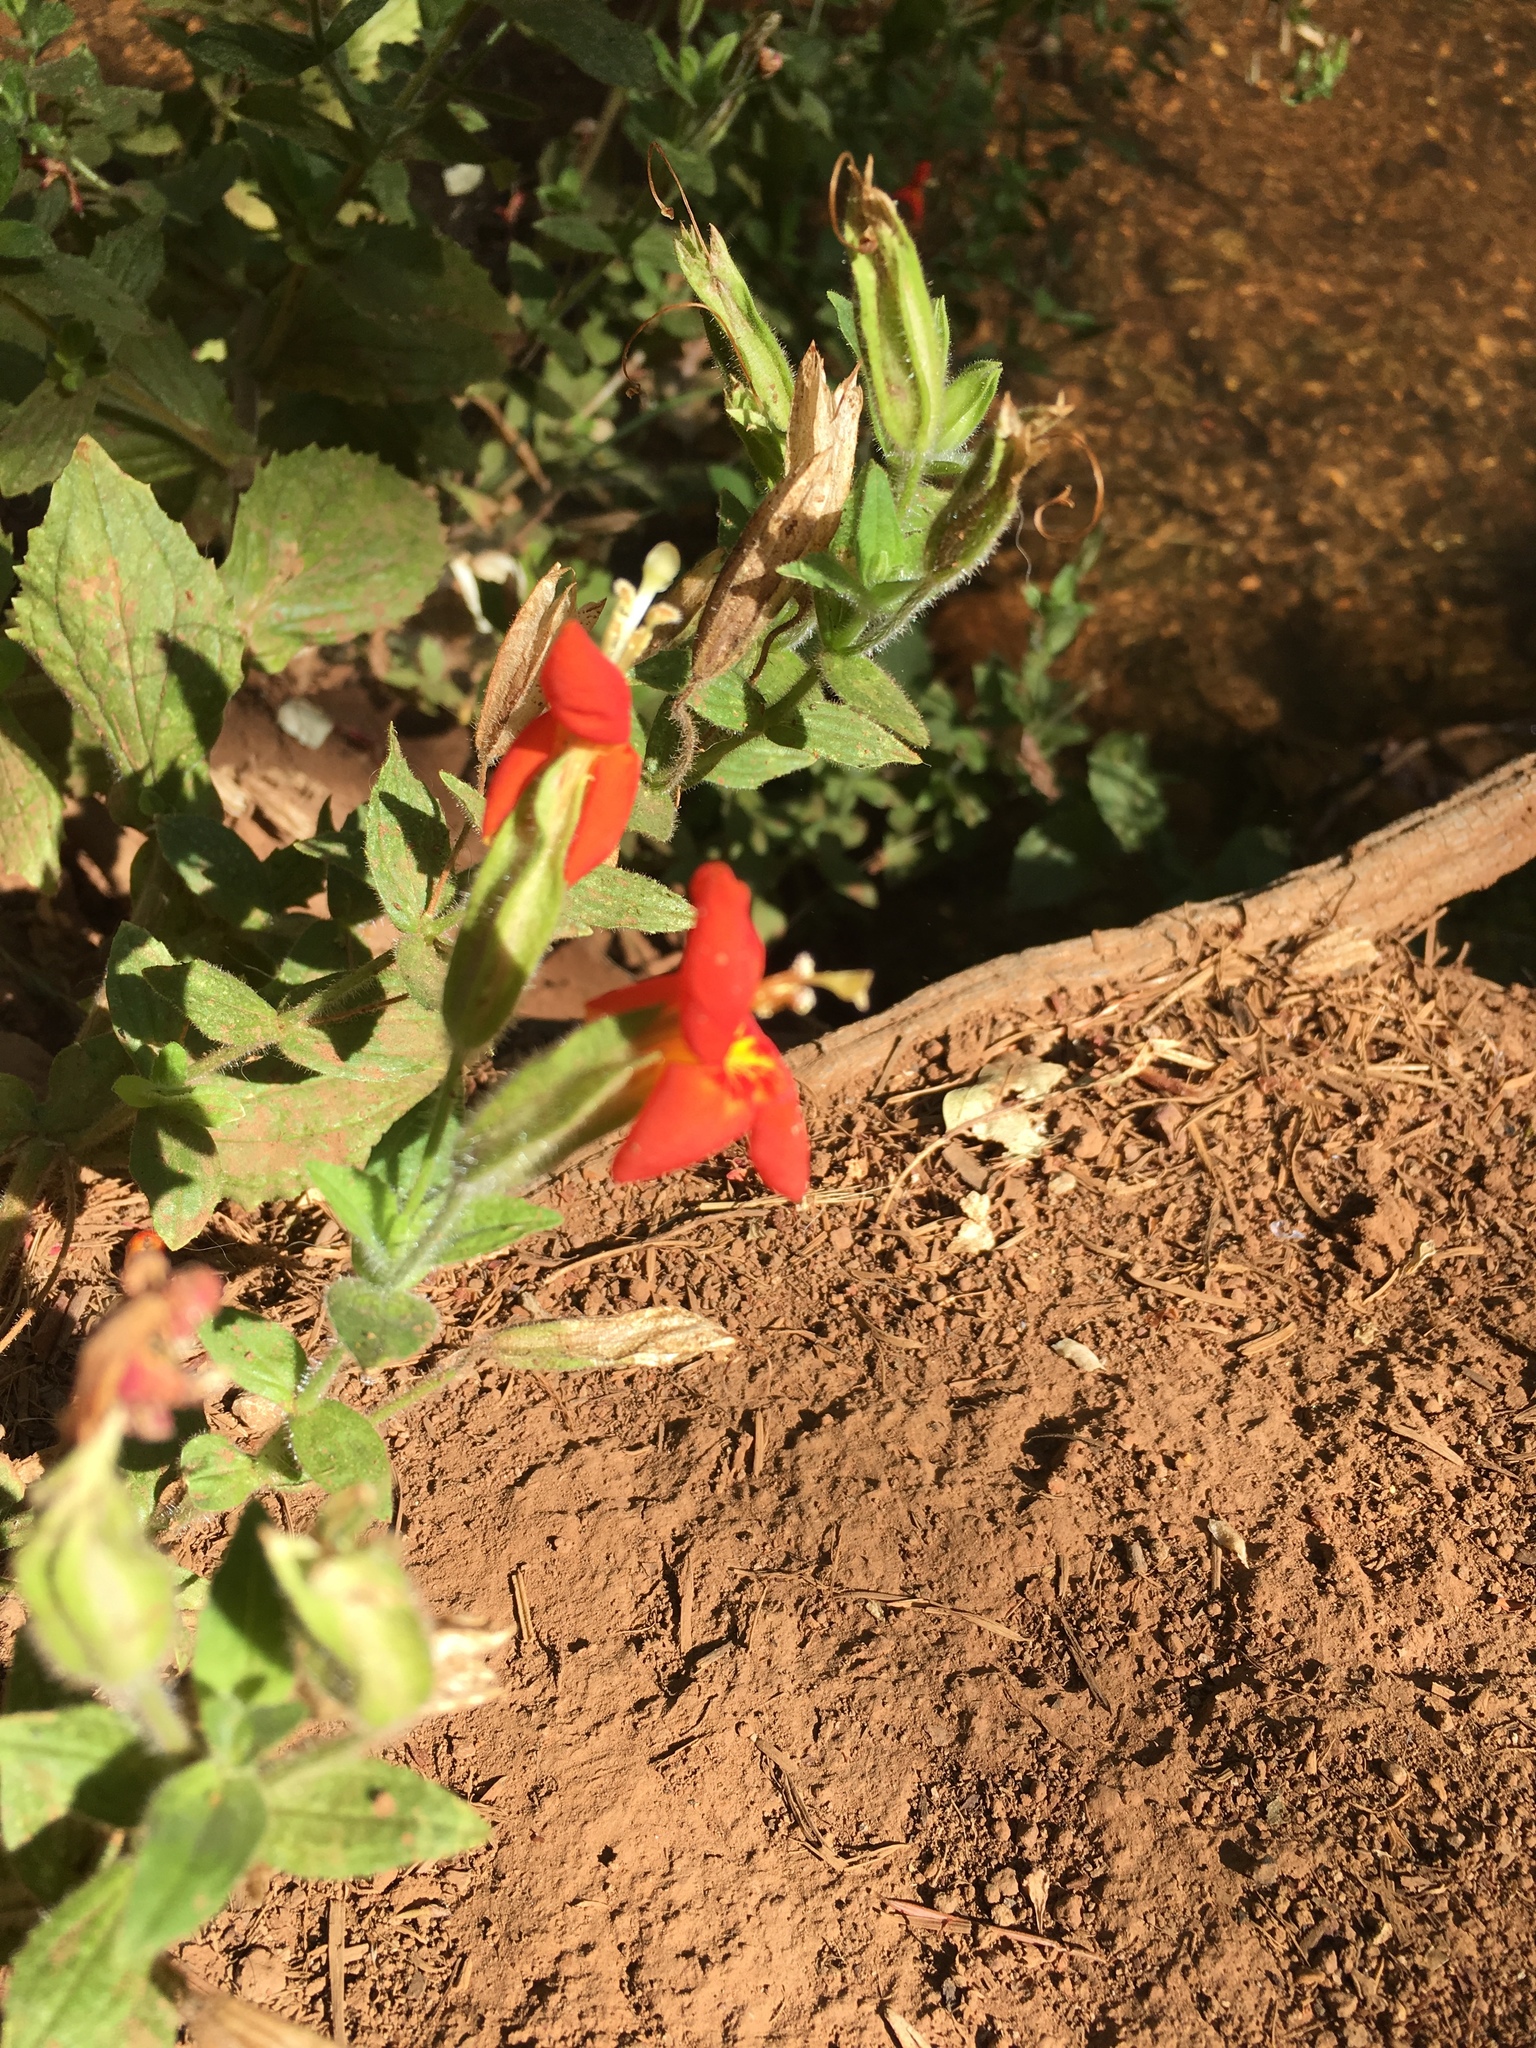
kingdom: Plantae
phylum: Tracheophyta
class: Magnoliopsida
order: Lamiales
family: Phrymaceae
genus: Erythranthe
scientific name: Erythranthe cardinalis
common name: Scarlet monkey-flower
